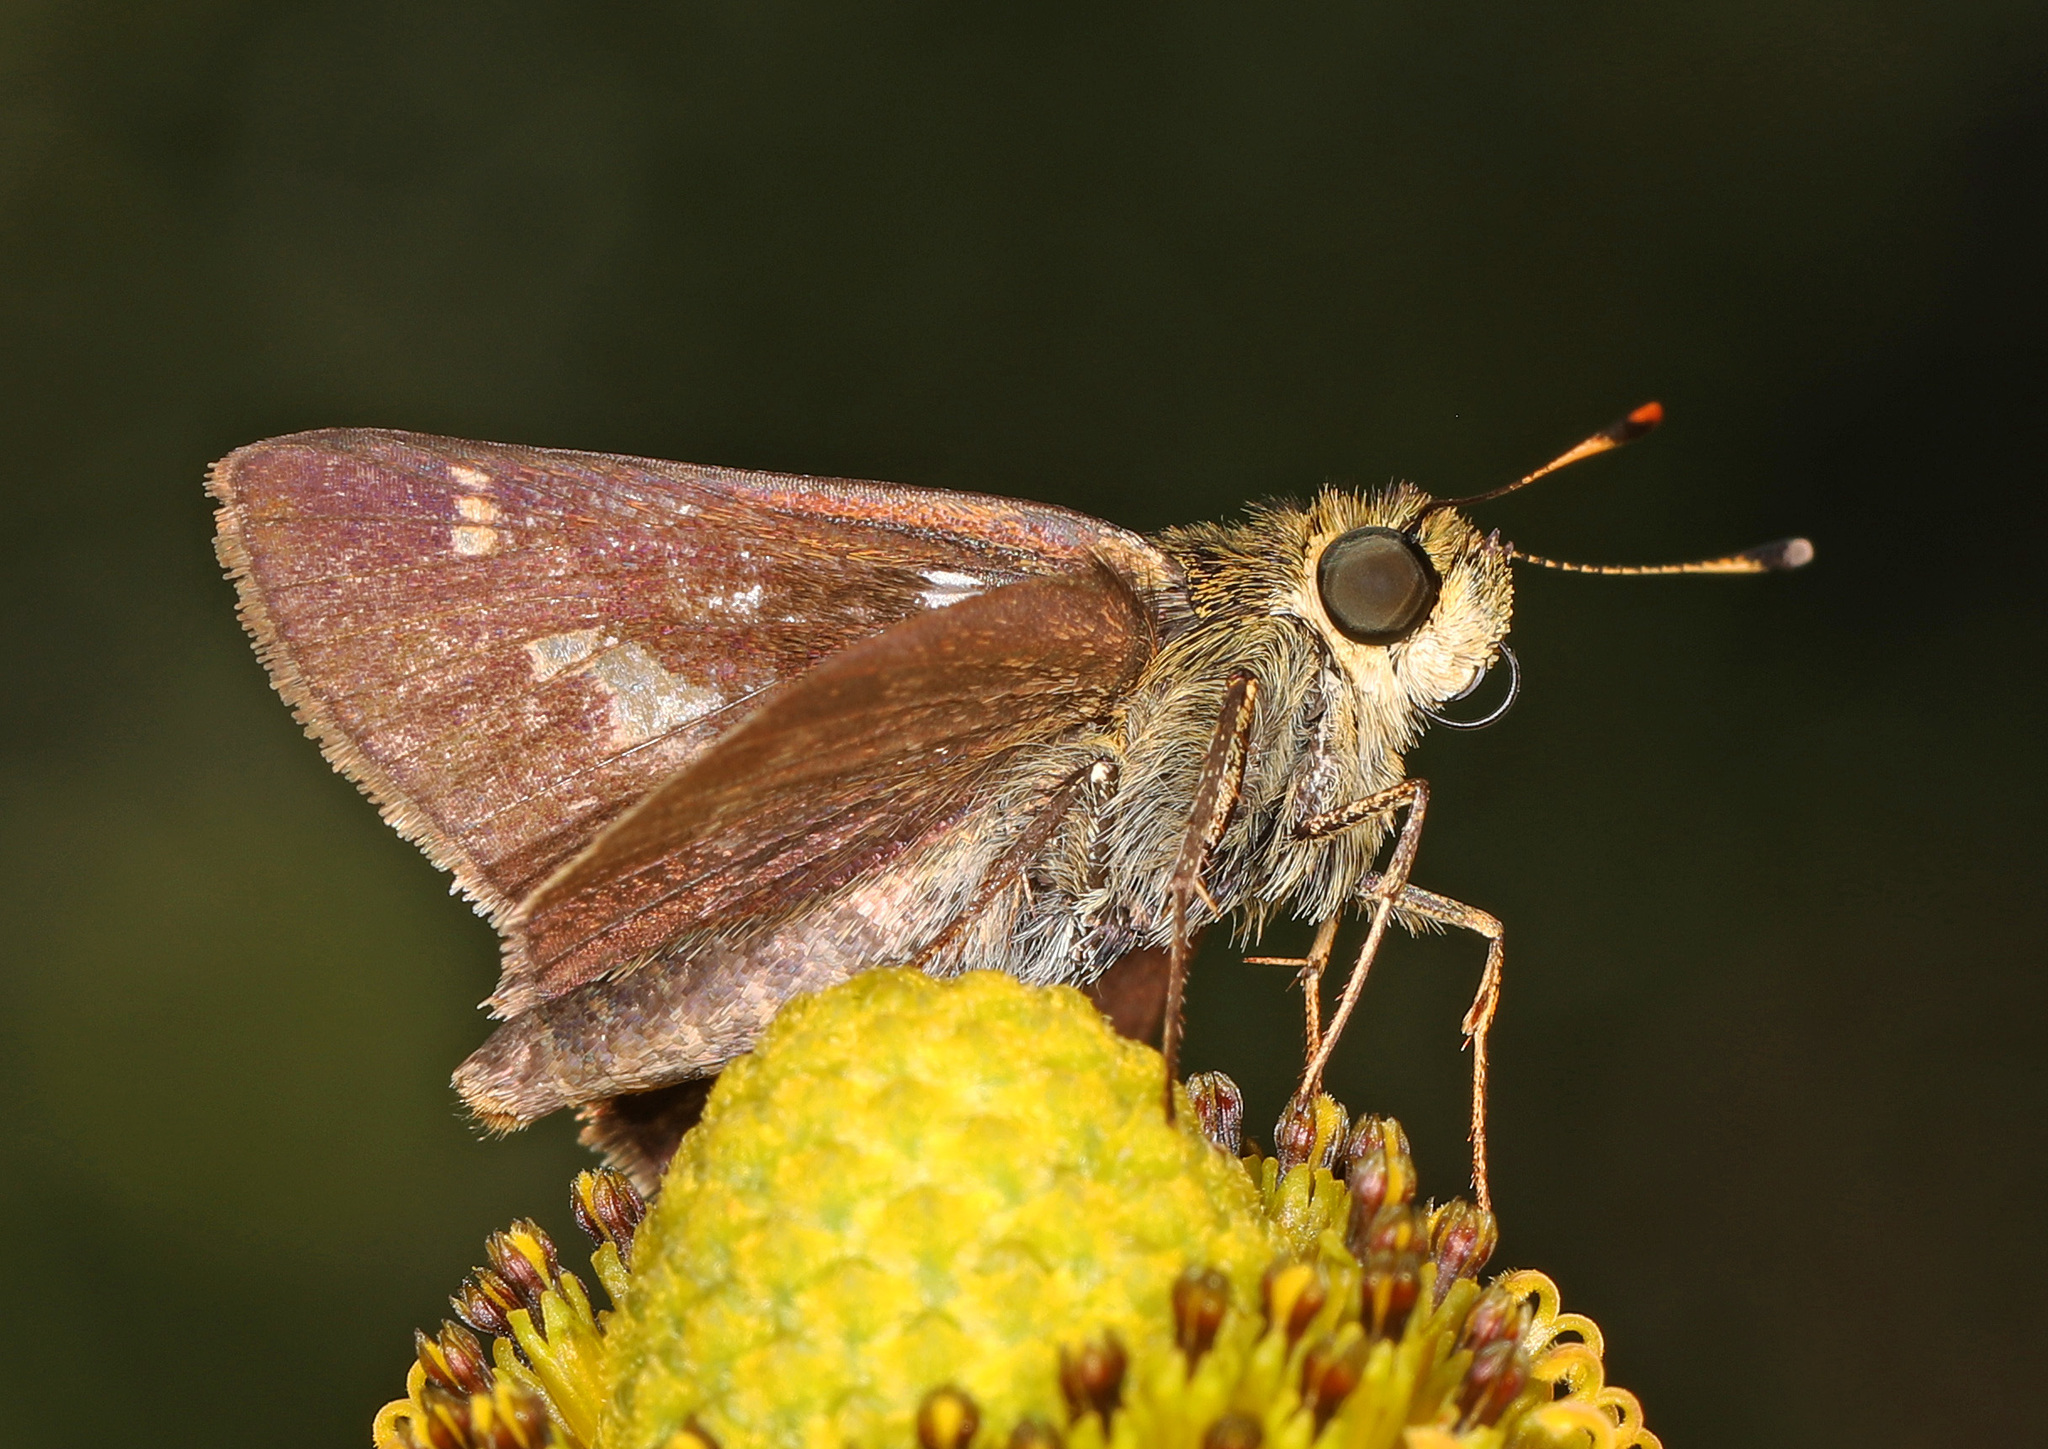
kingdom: Animalia
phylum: Arthropoda
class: Insecta
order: Lepidoptera
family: Hesperiidae
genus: Vernia
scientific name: Vernia verna
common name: Little glassywing
